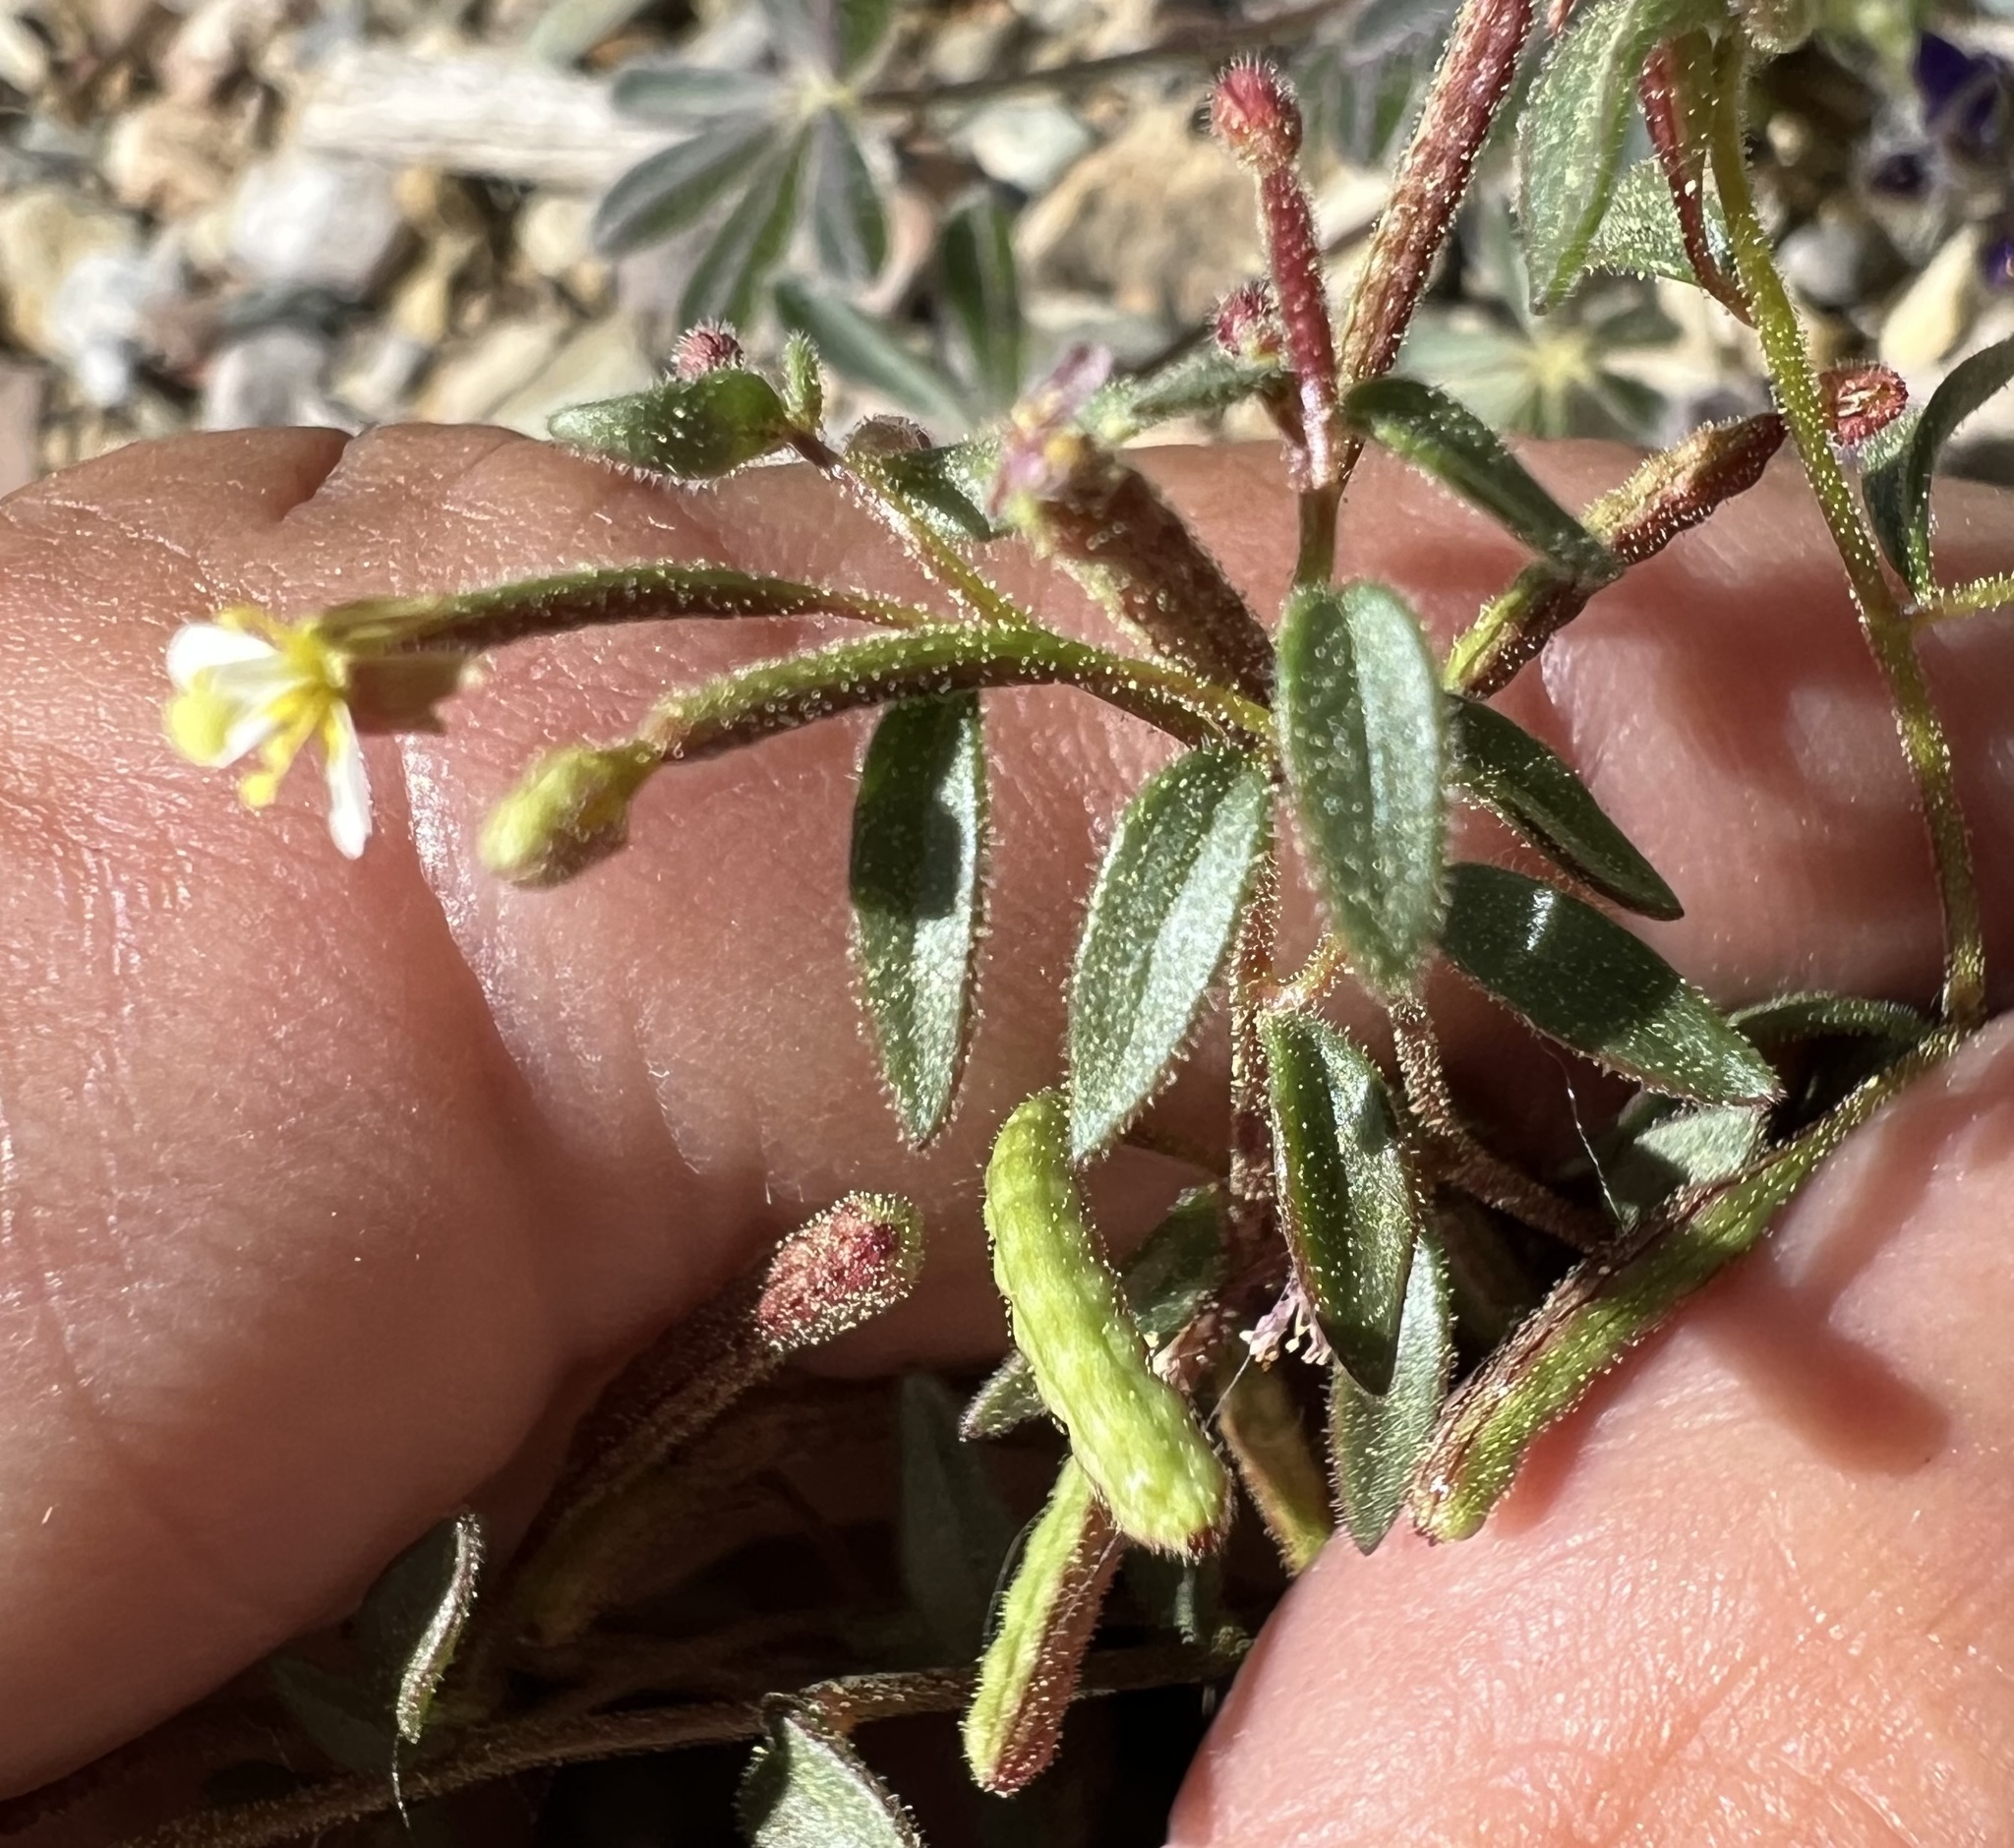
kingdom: Plantae
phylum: Tracheophyta
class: Magnoliopsida
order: Myrtales
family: Onagraceae
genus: Chylismiella
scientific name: Chylismiella pterosperma
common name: Wingfruit suncup
